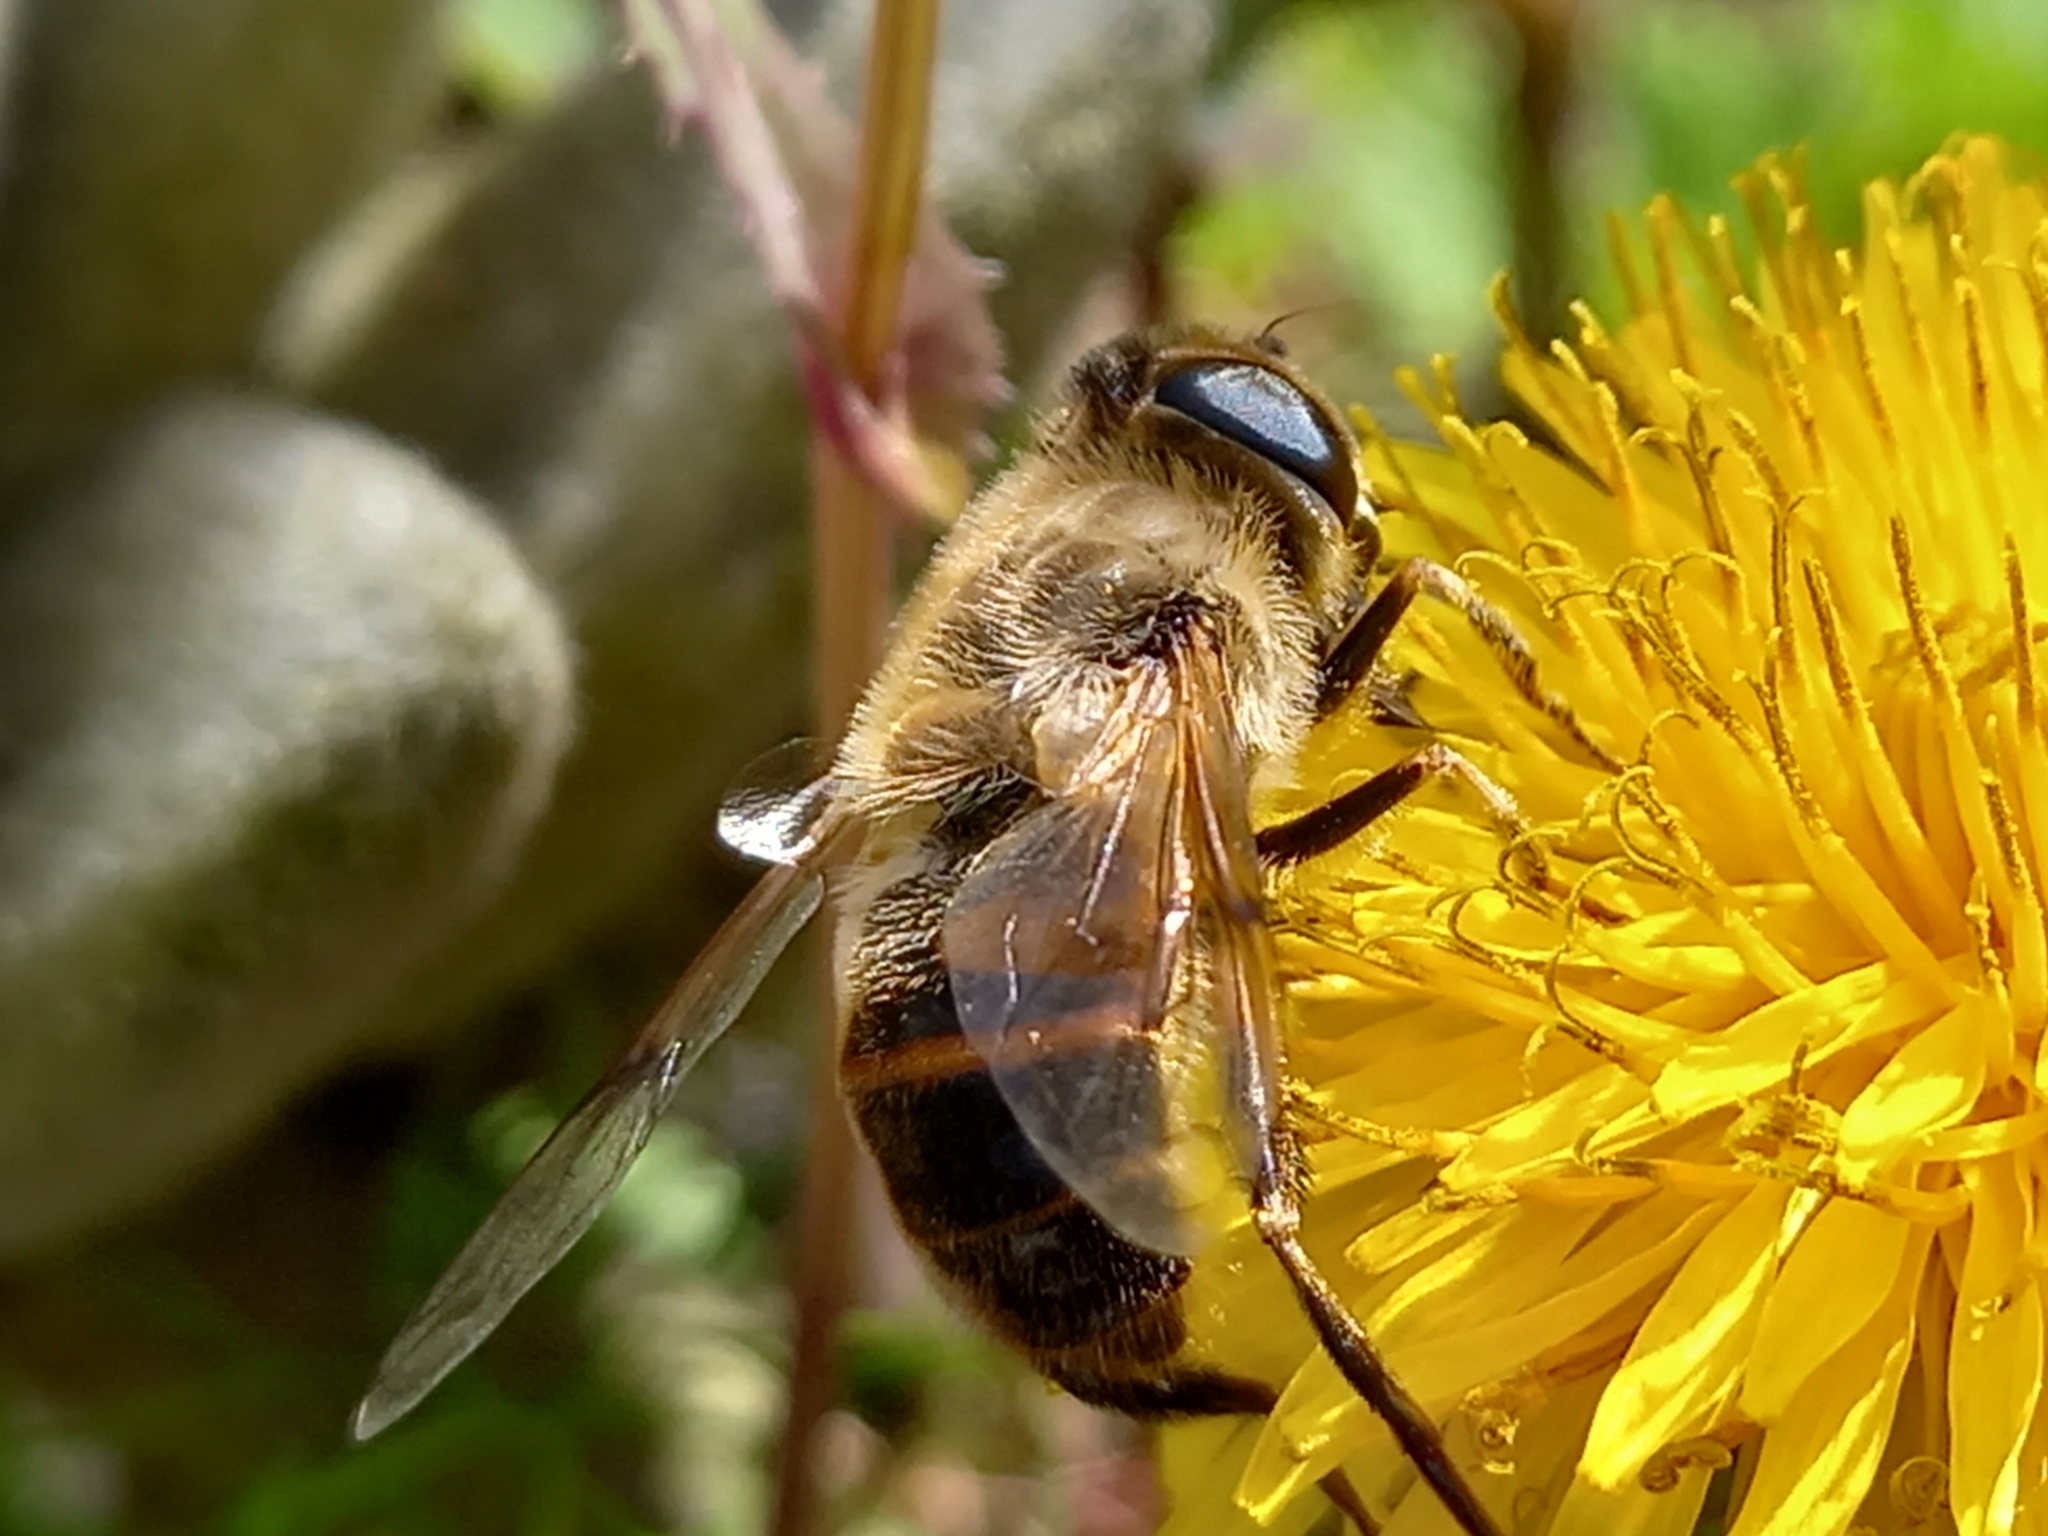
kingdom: Animalia
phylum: Arthropoda
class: Insecta
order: Diptera
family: Syrphidae
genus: Eristalis
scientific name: Eristalis tenax
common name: Drone fly
